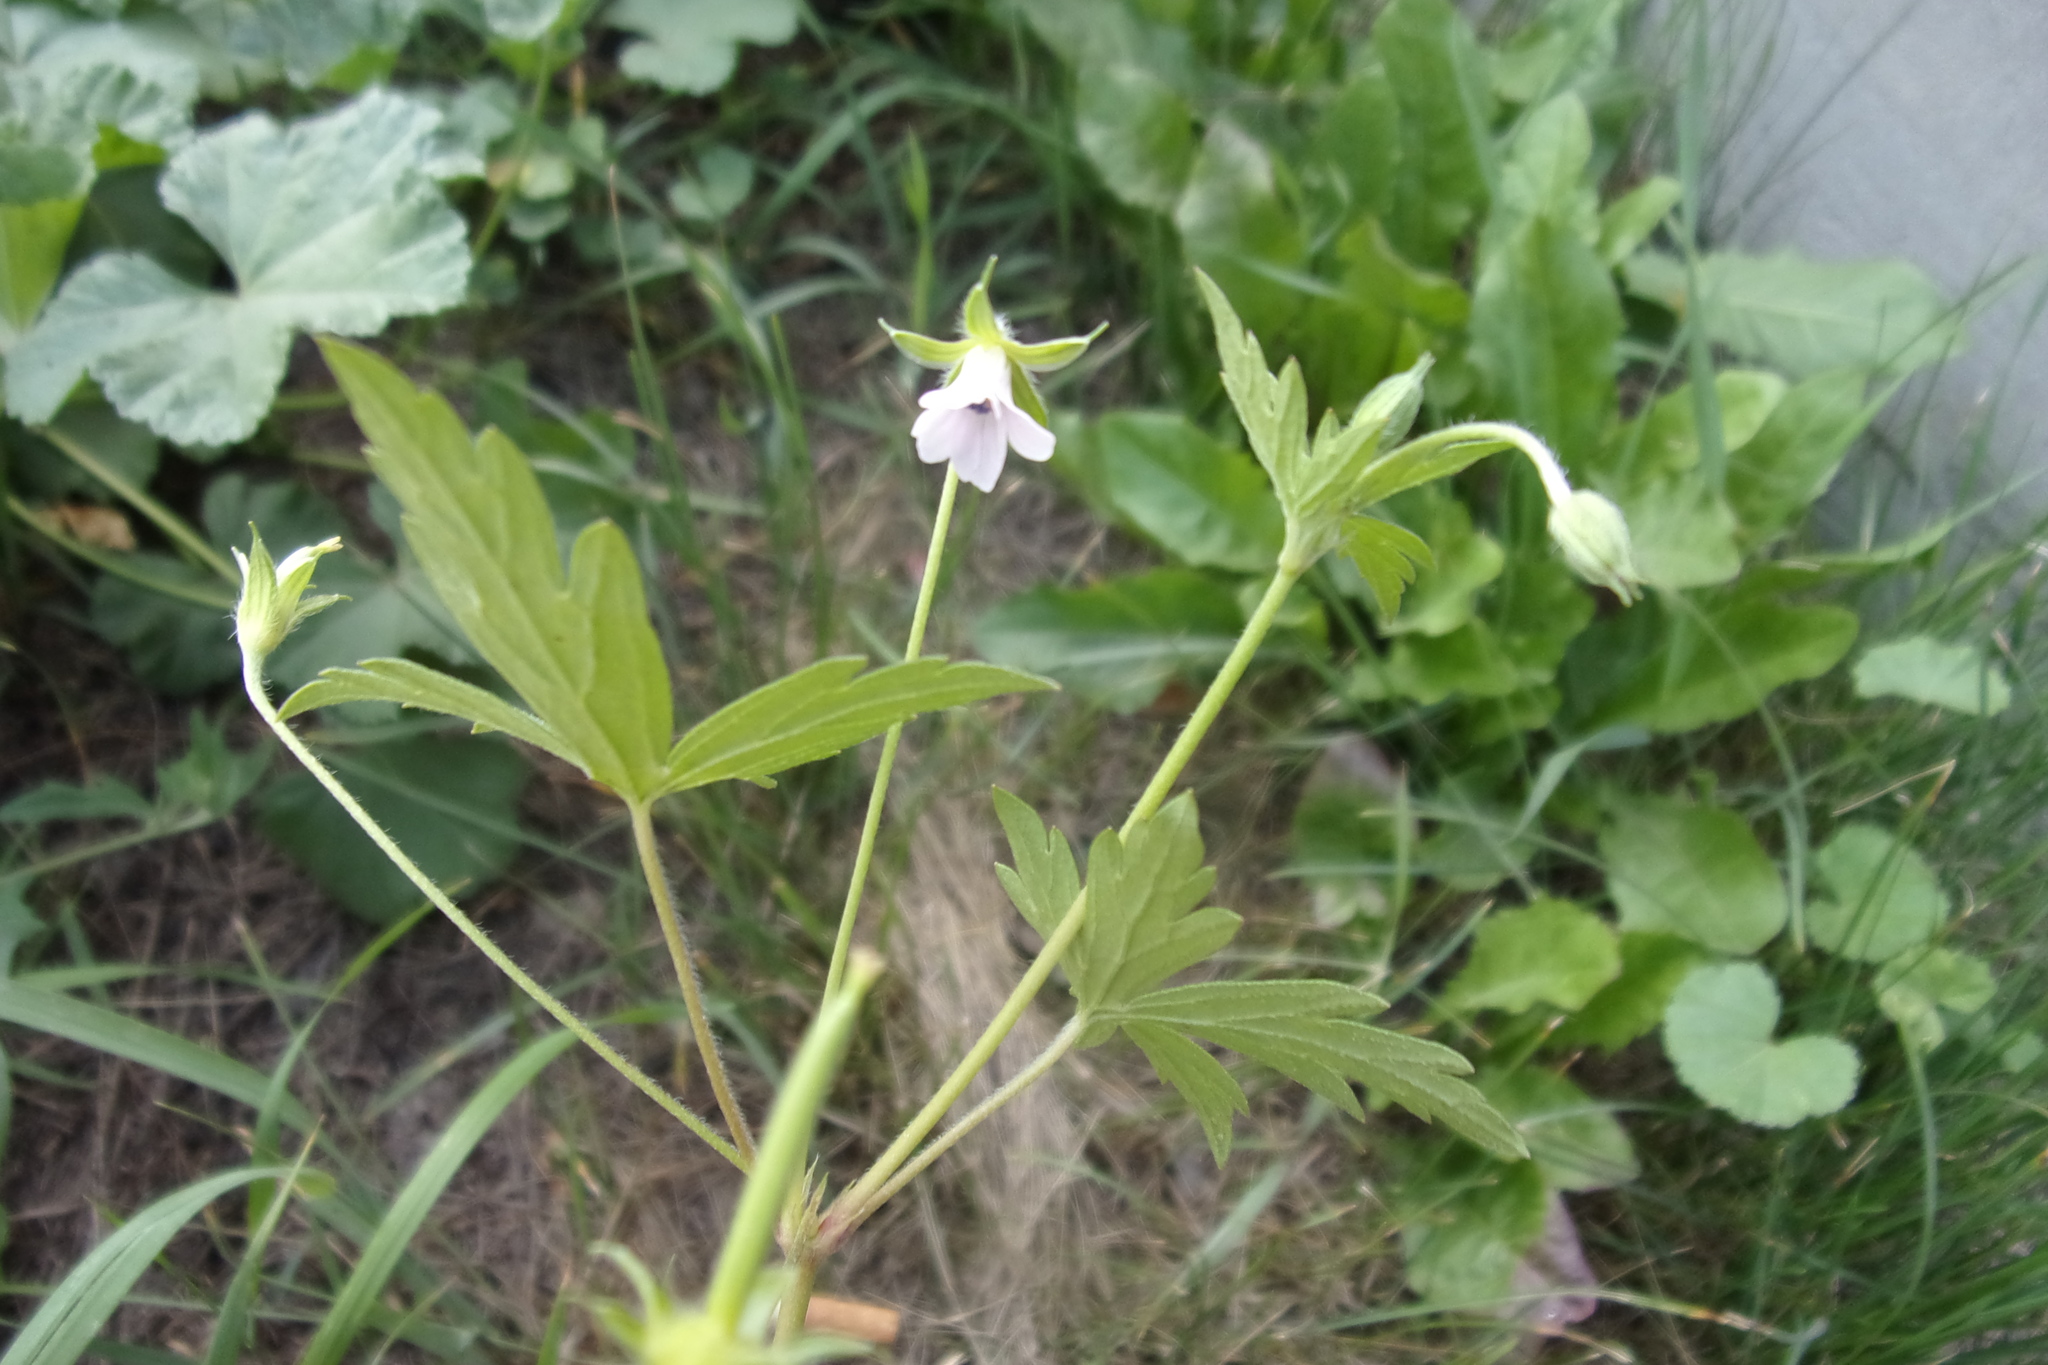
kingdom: Plantae
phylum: Tracheophyta
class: Magnoliopsida
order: Geraniales
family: Geraniaceae
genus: Geranium
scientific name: Geranium sibiricum
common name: Siberian crane's-bill
